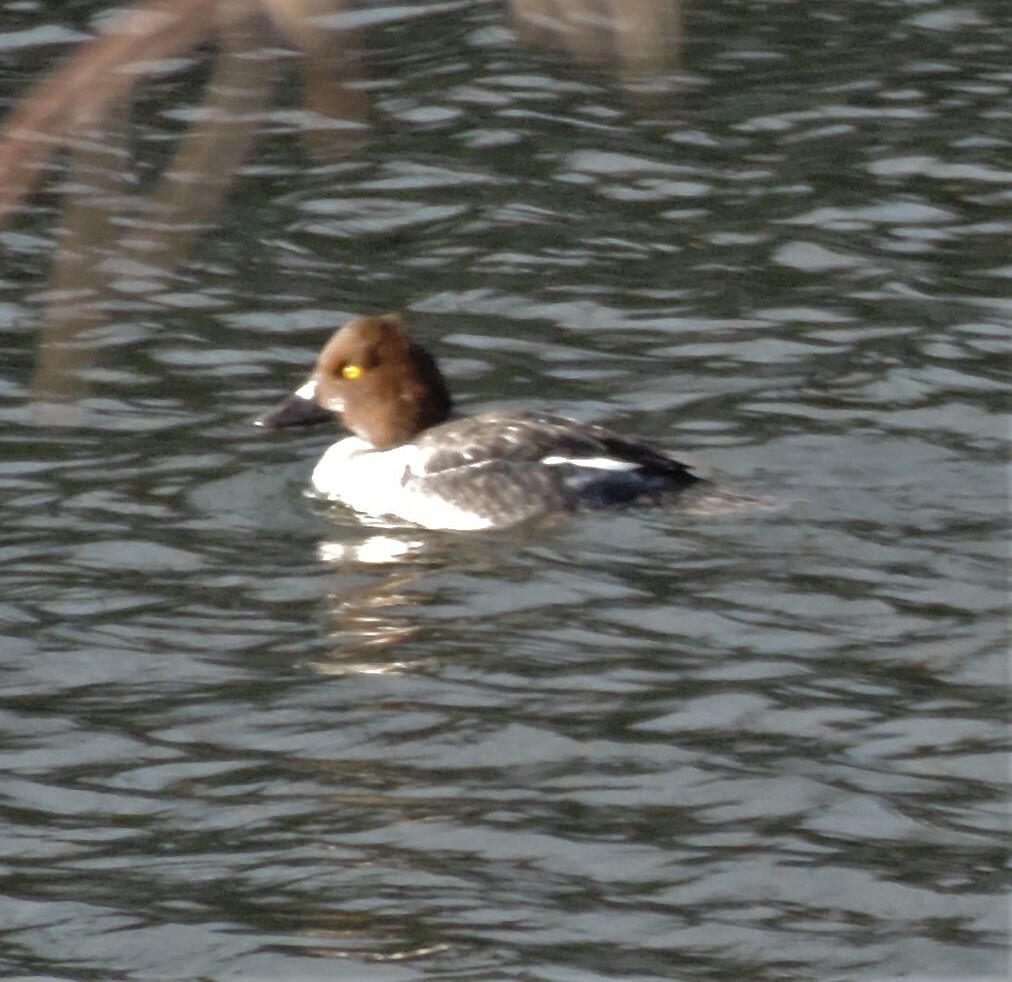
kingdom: Animalia
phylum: Chordata
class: Aves
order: Anseriformes
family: Anatidae
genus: Bucephala
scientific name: Bucephala clangula
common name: Common goldeneye
